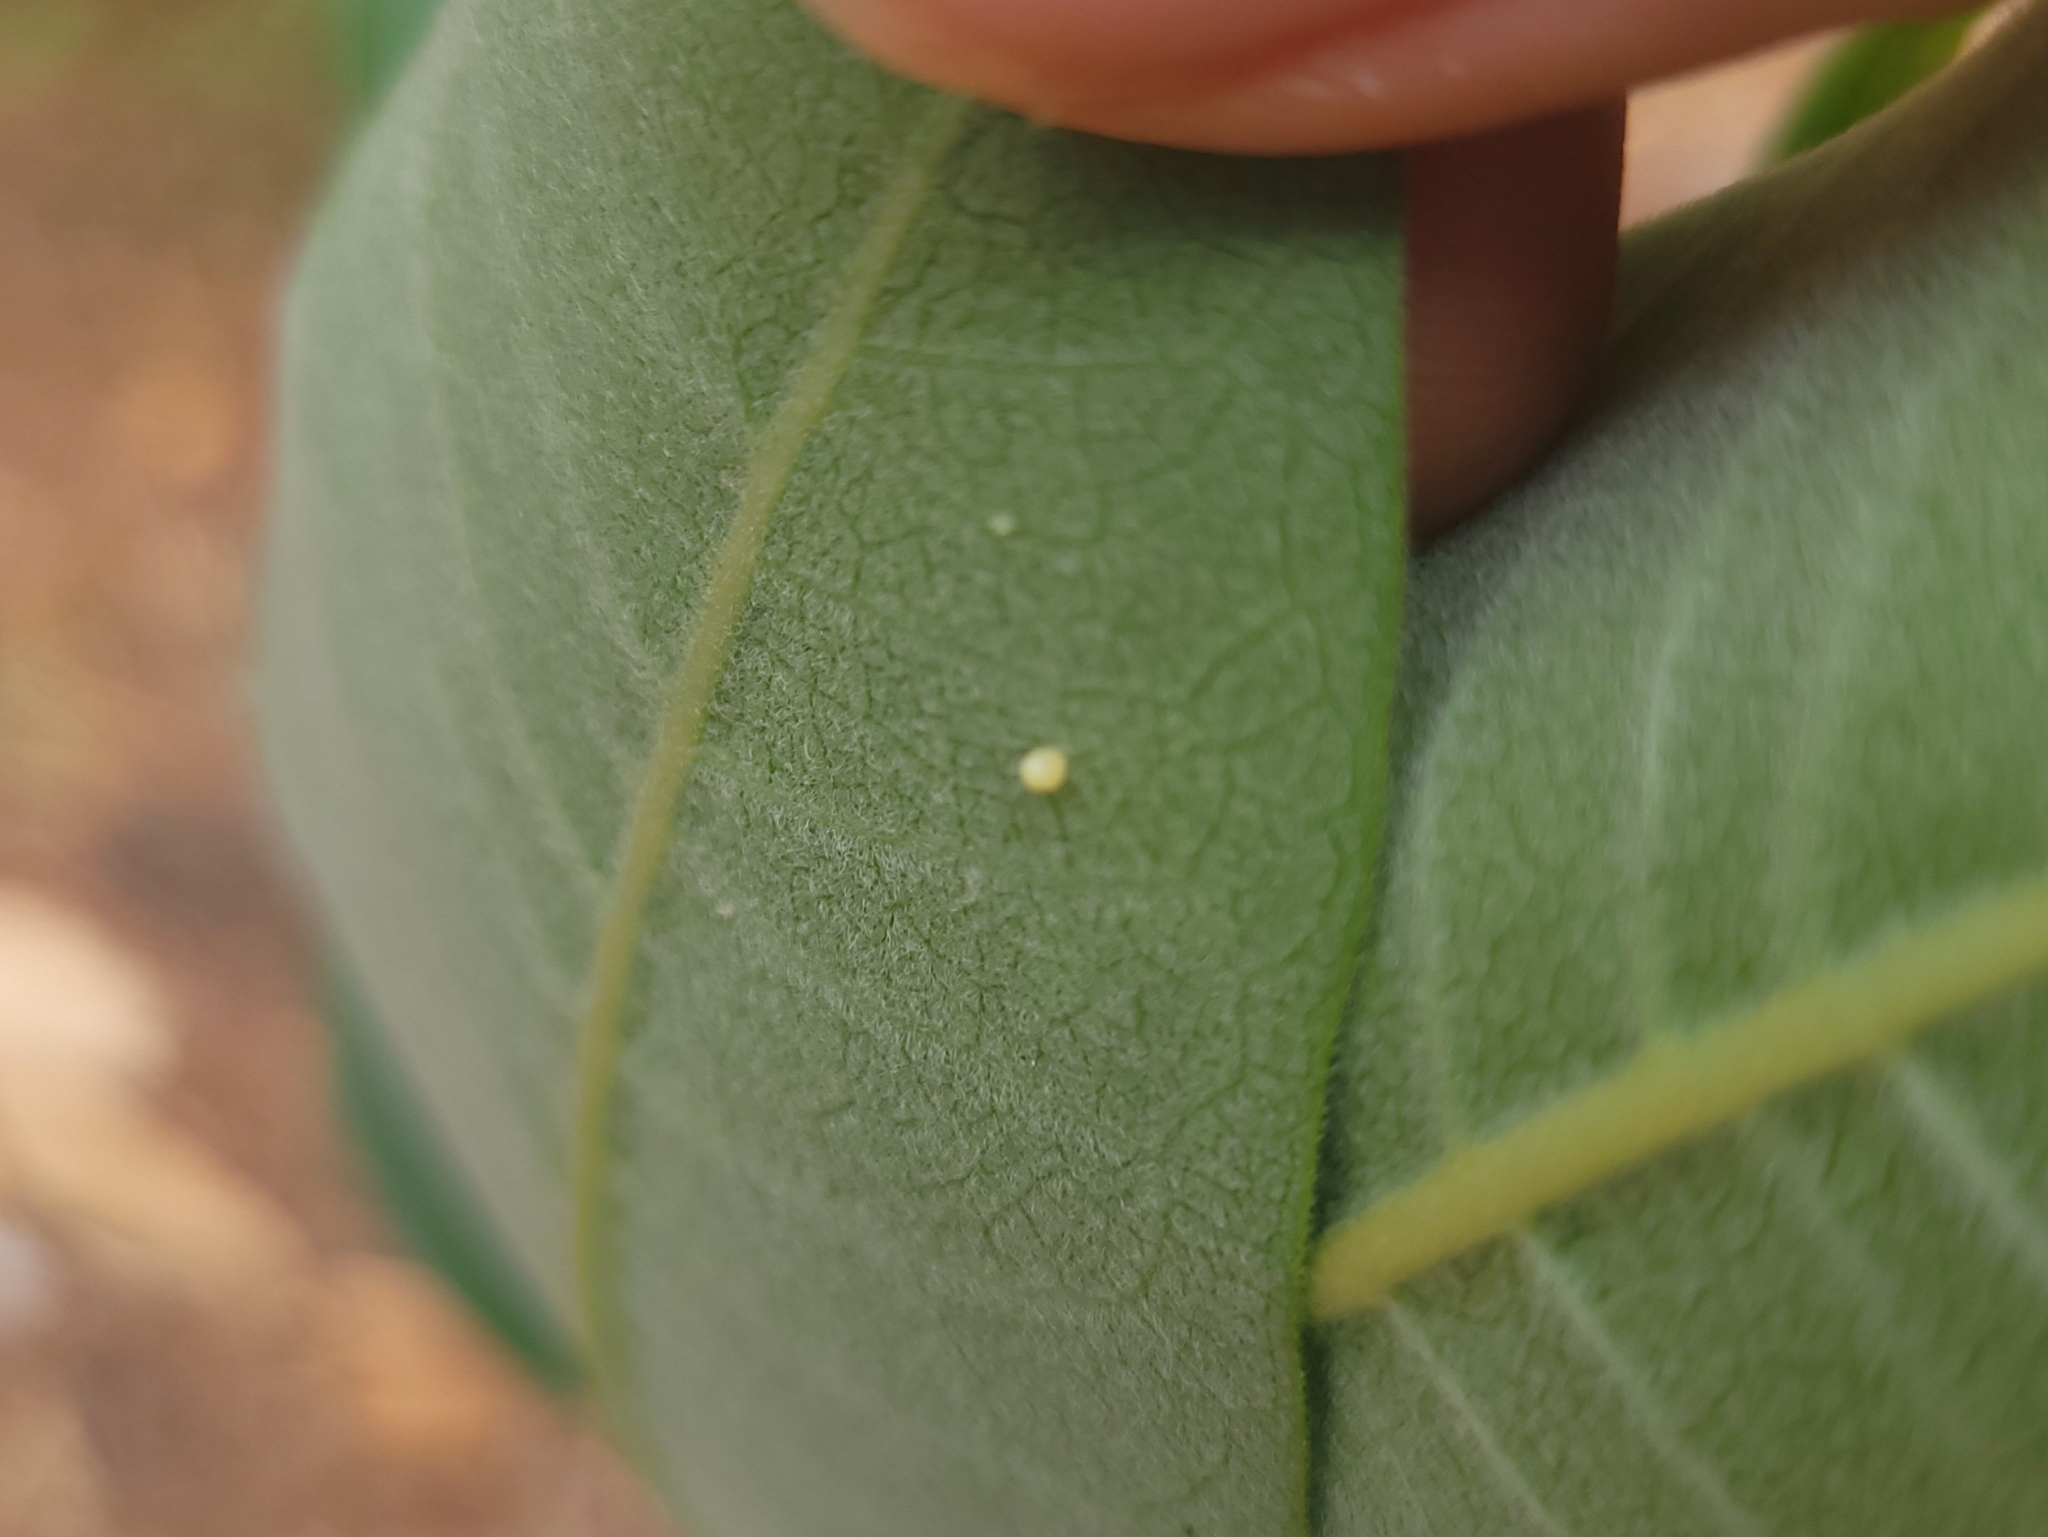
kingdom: Animalia
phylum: Arthropoda
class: Insecta
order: Lepidoptera
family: Nymphalidae
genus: Danaus
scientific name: Danaus plexippus
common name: Monarch
